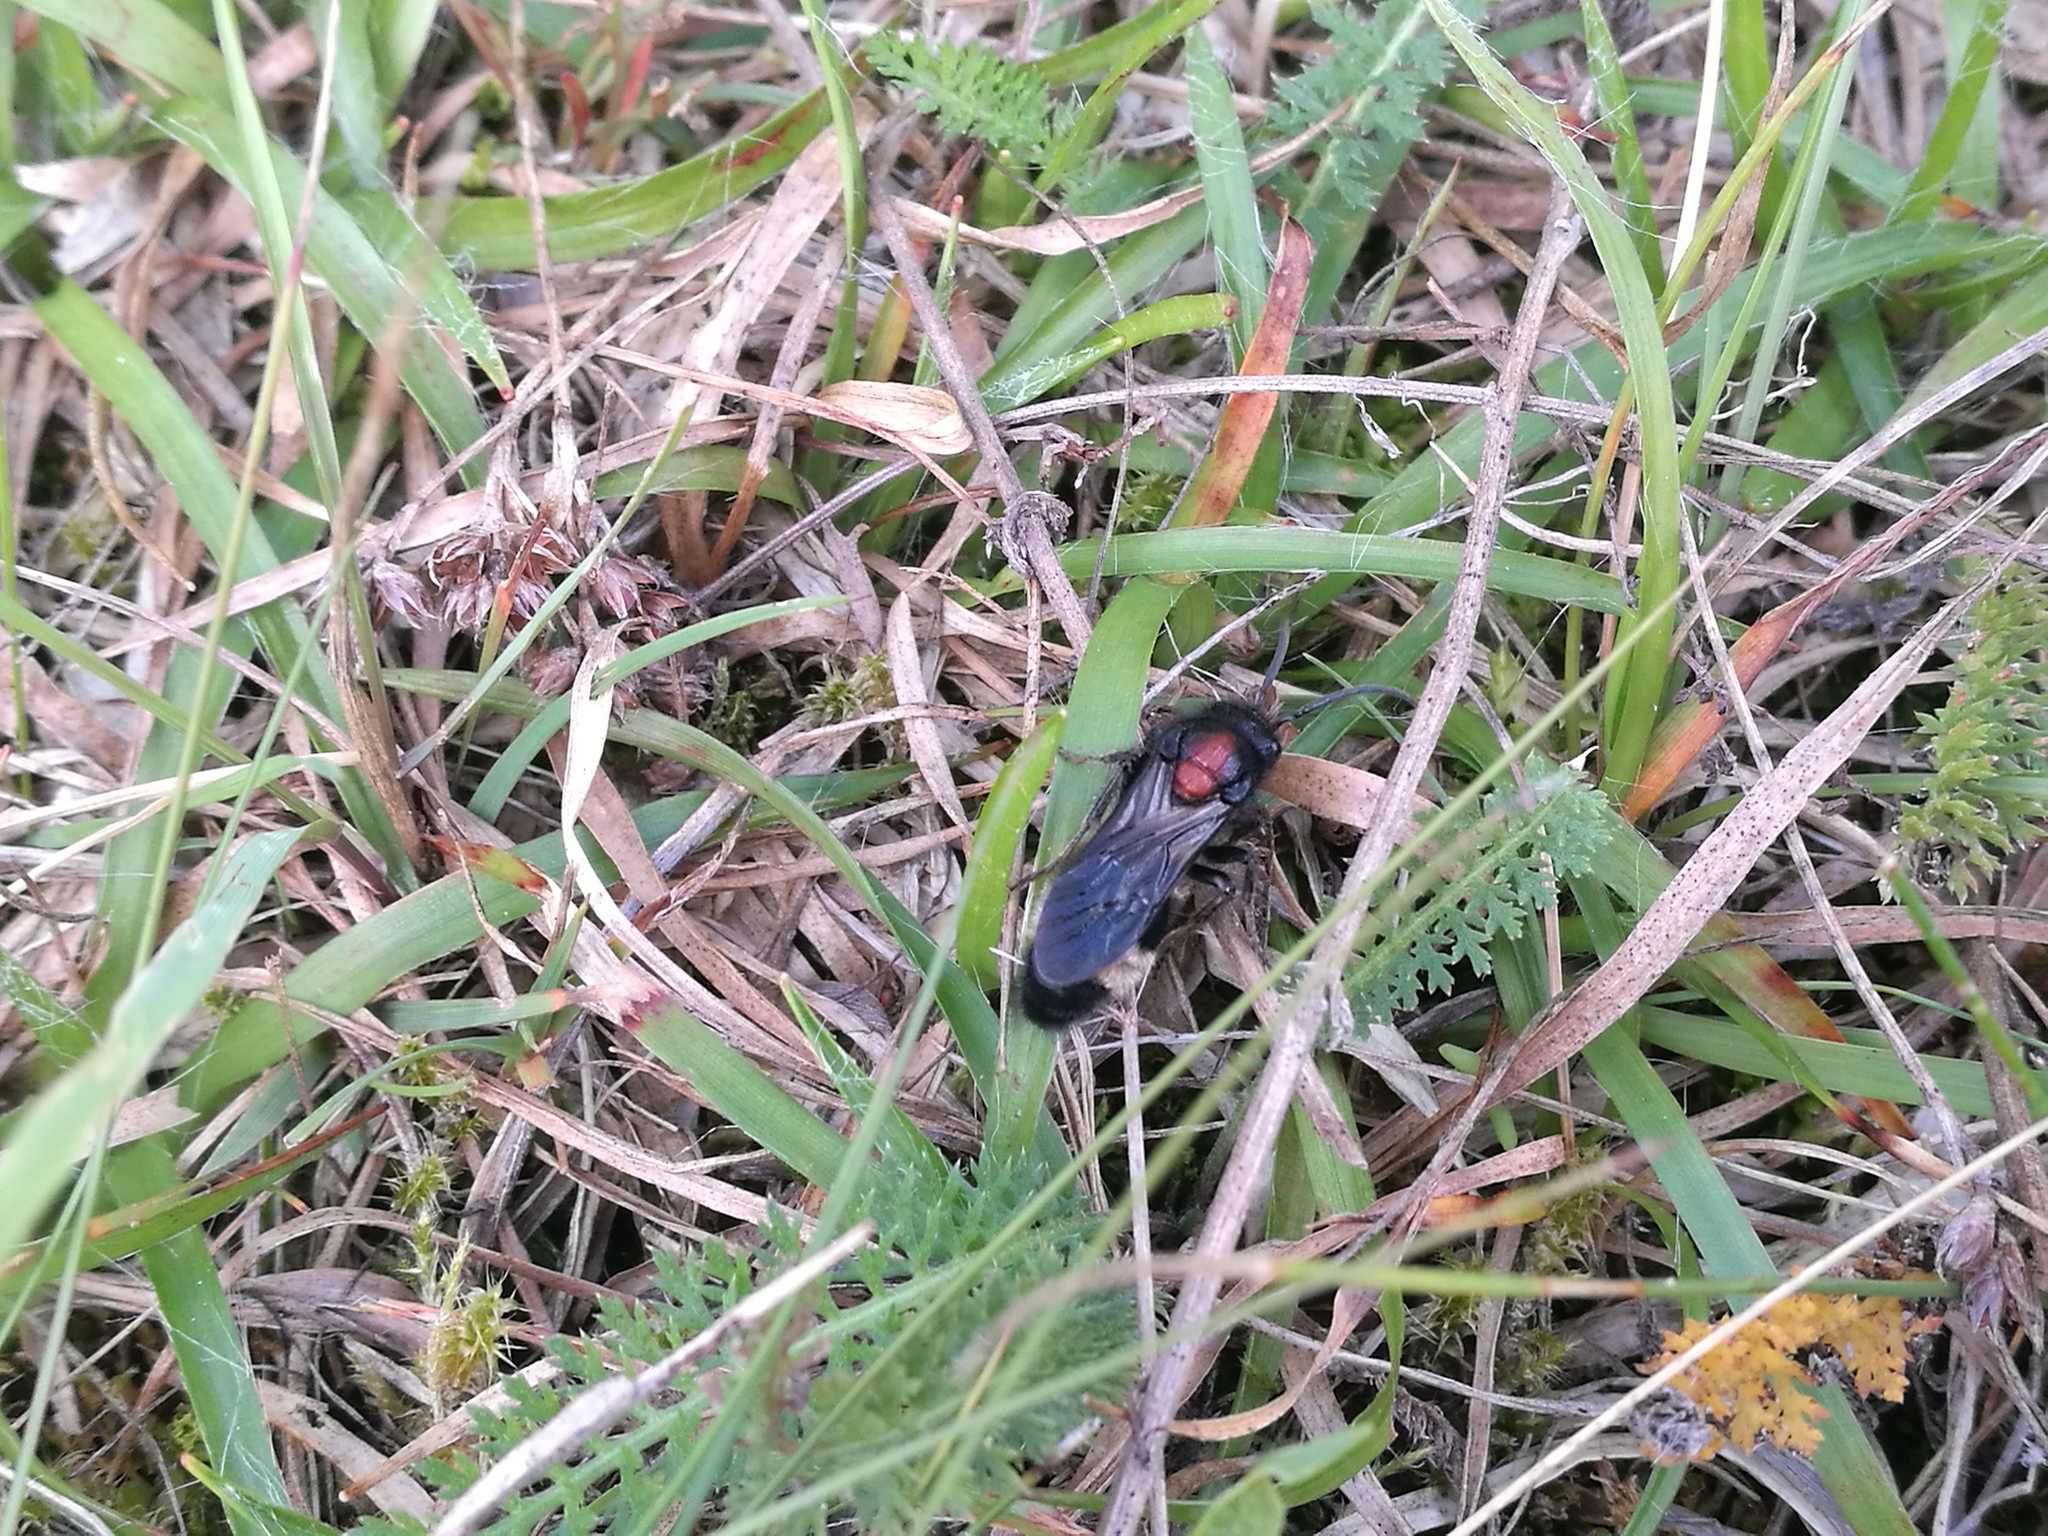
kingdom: Animalia
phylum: Arthropoda
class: Insecta
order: Hymenoptera
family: Mutillidae
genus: Mutilla
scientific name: Mutilla europaea
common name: Large velvet ant
